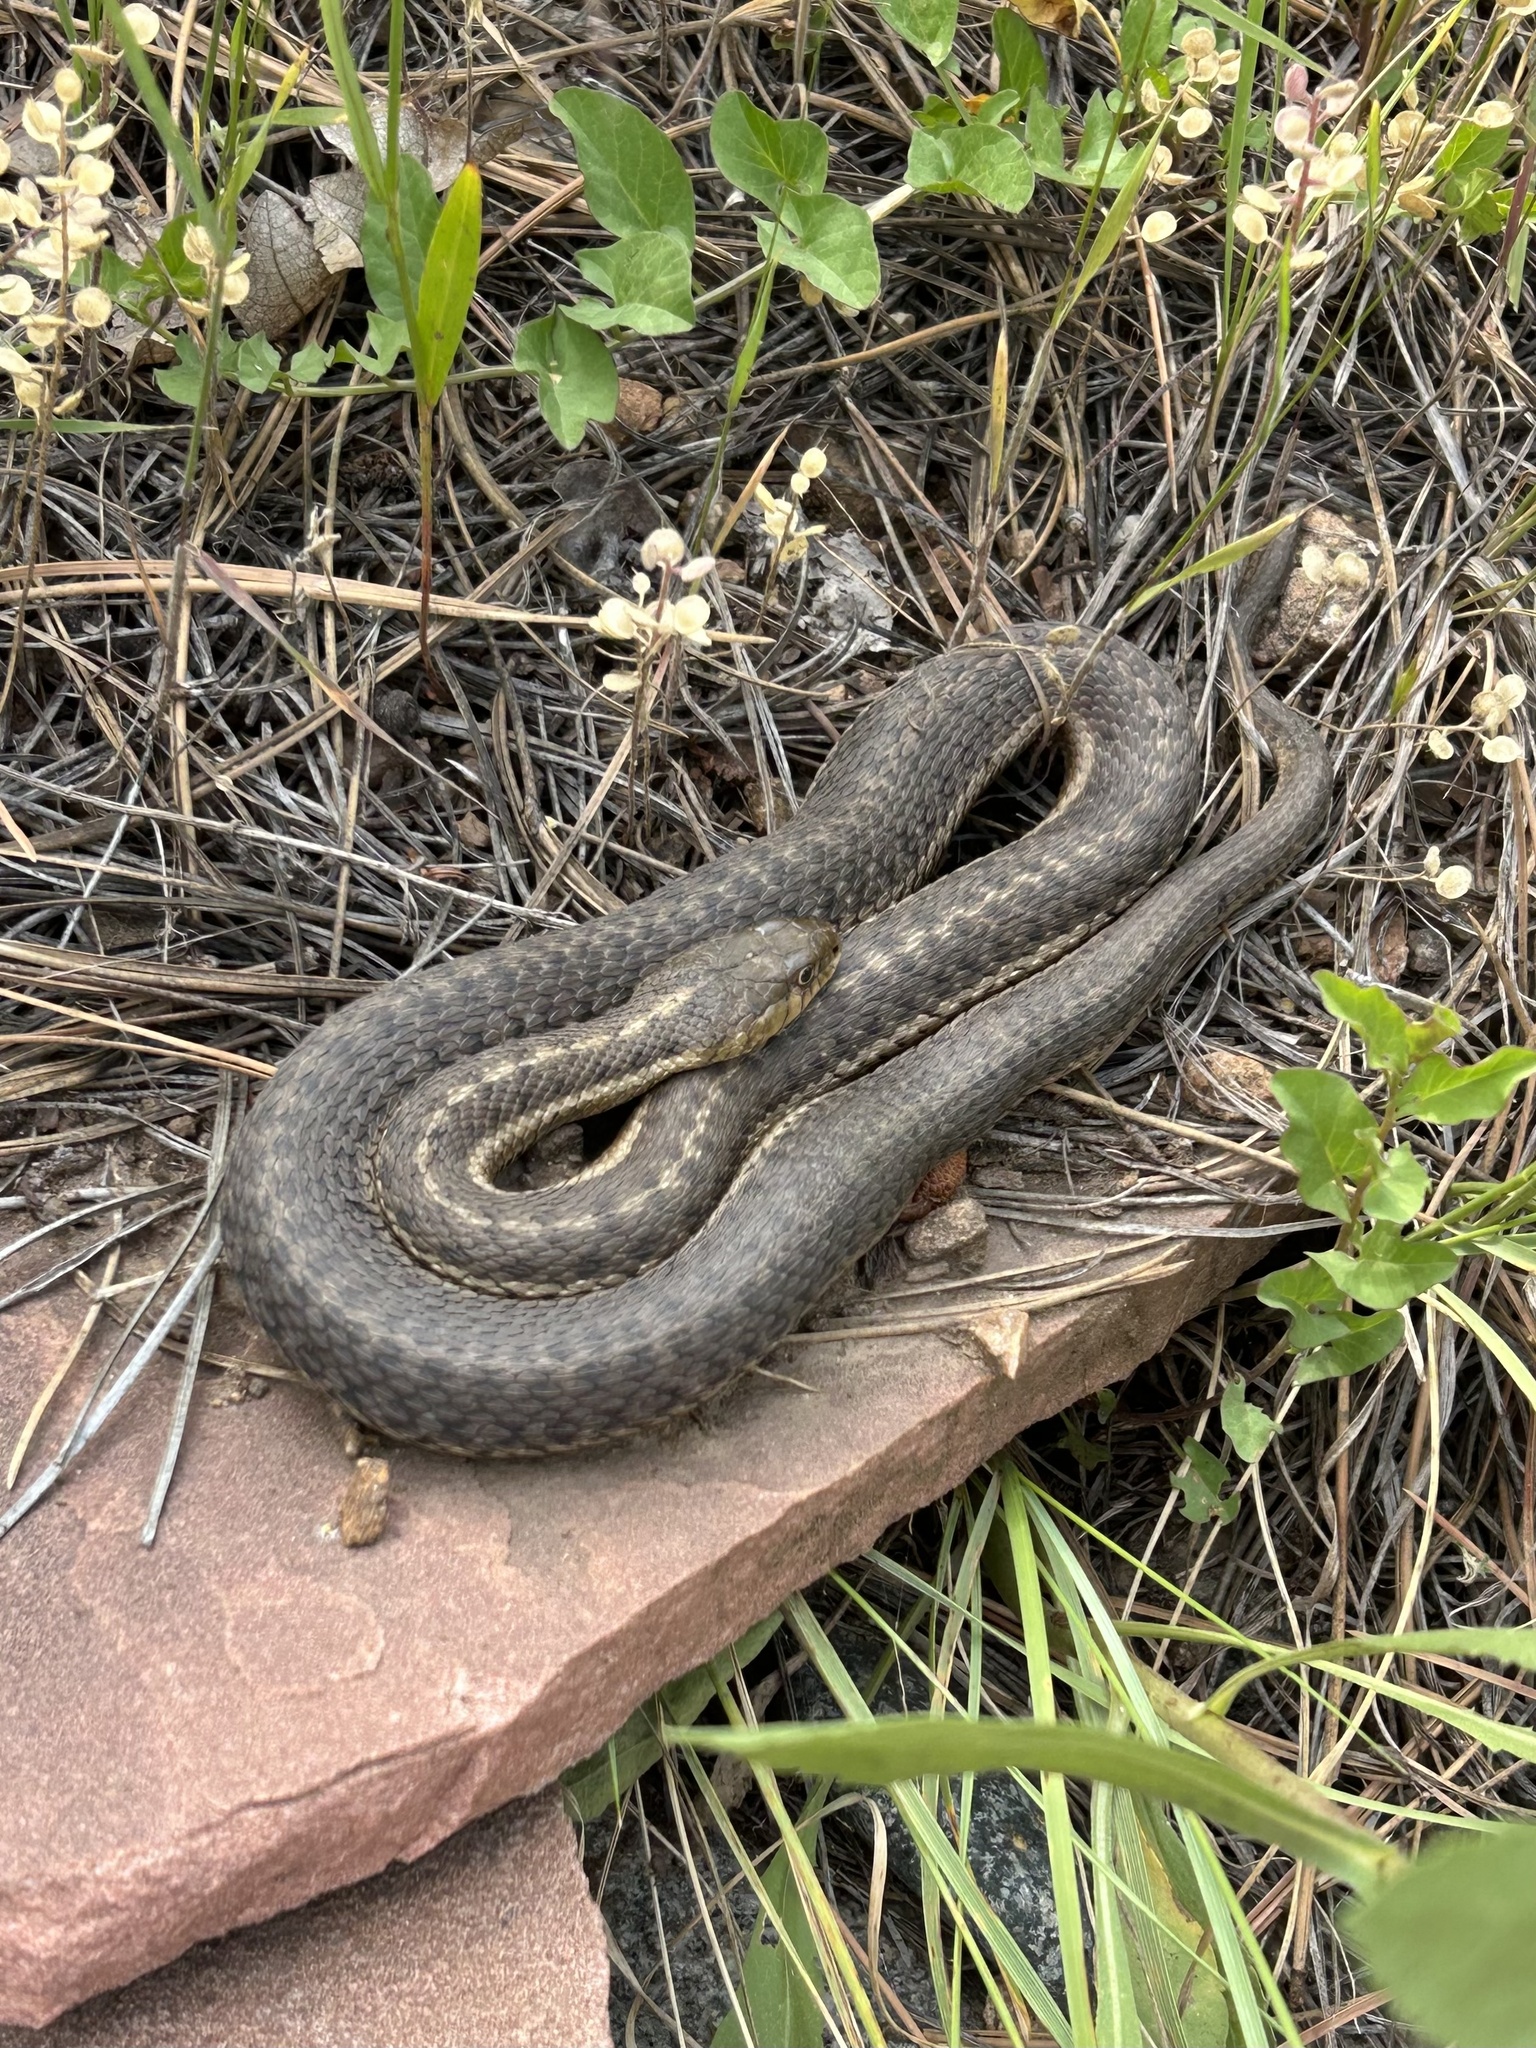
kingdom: Animalia
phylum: Chordata
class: Squamata
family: Colubridae
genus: Thamnophis
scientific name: Thamnophis elegans
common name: Western terrestrial garter snake
